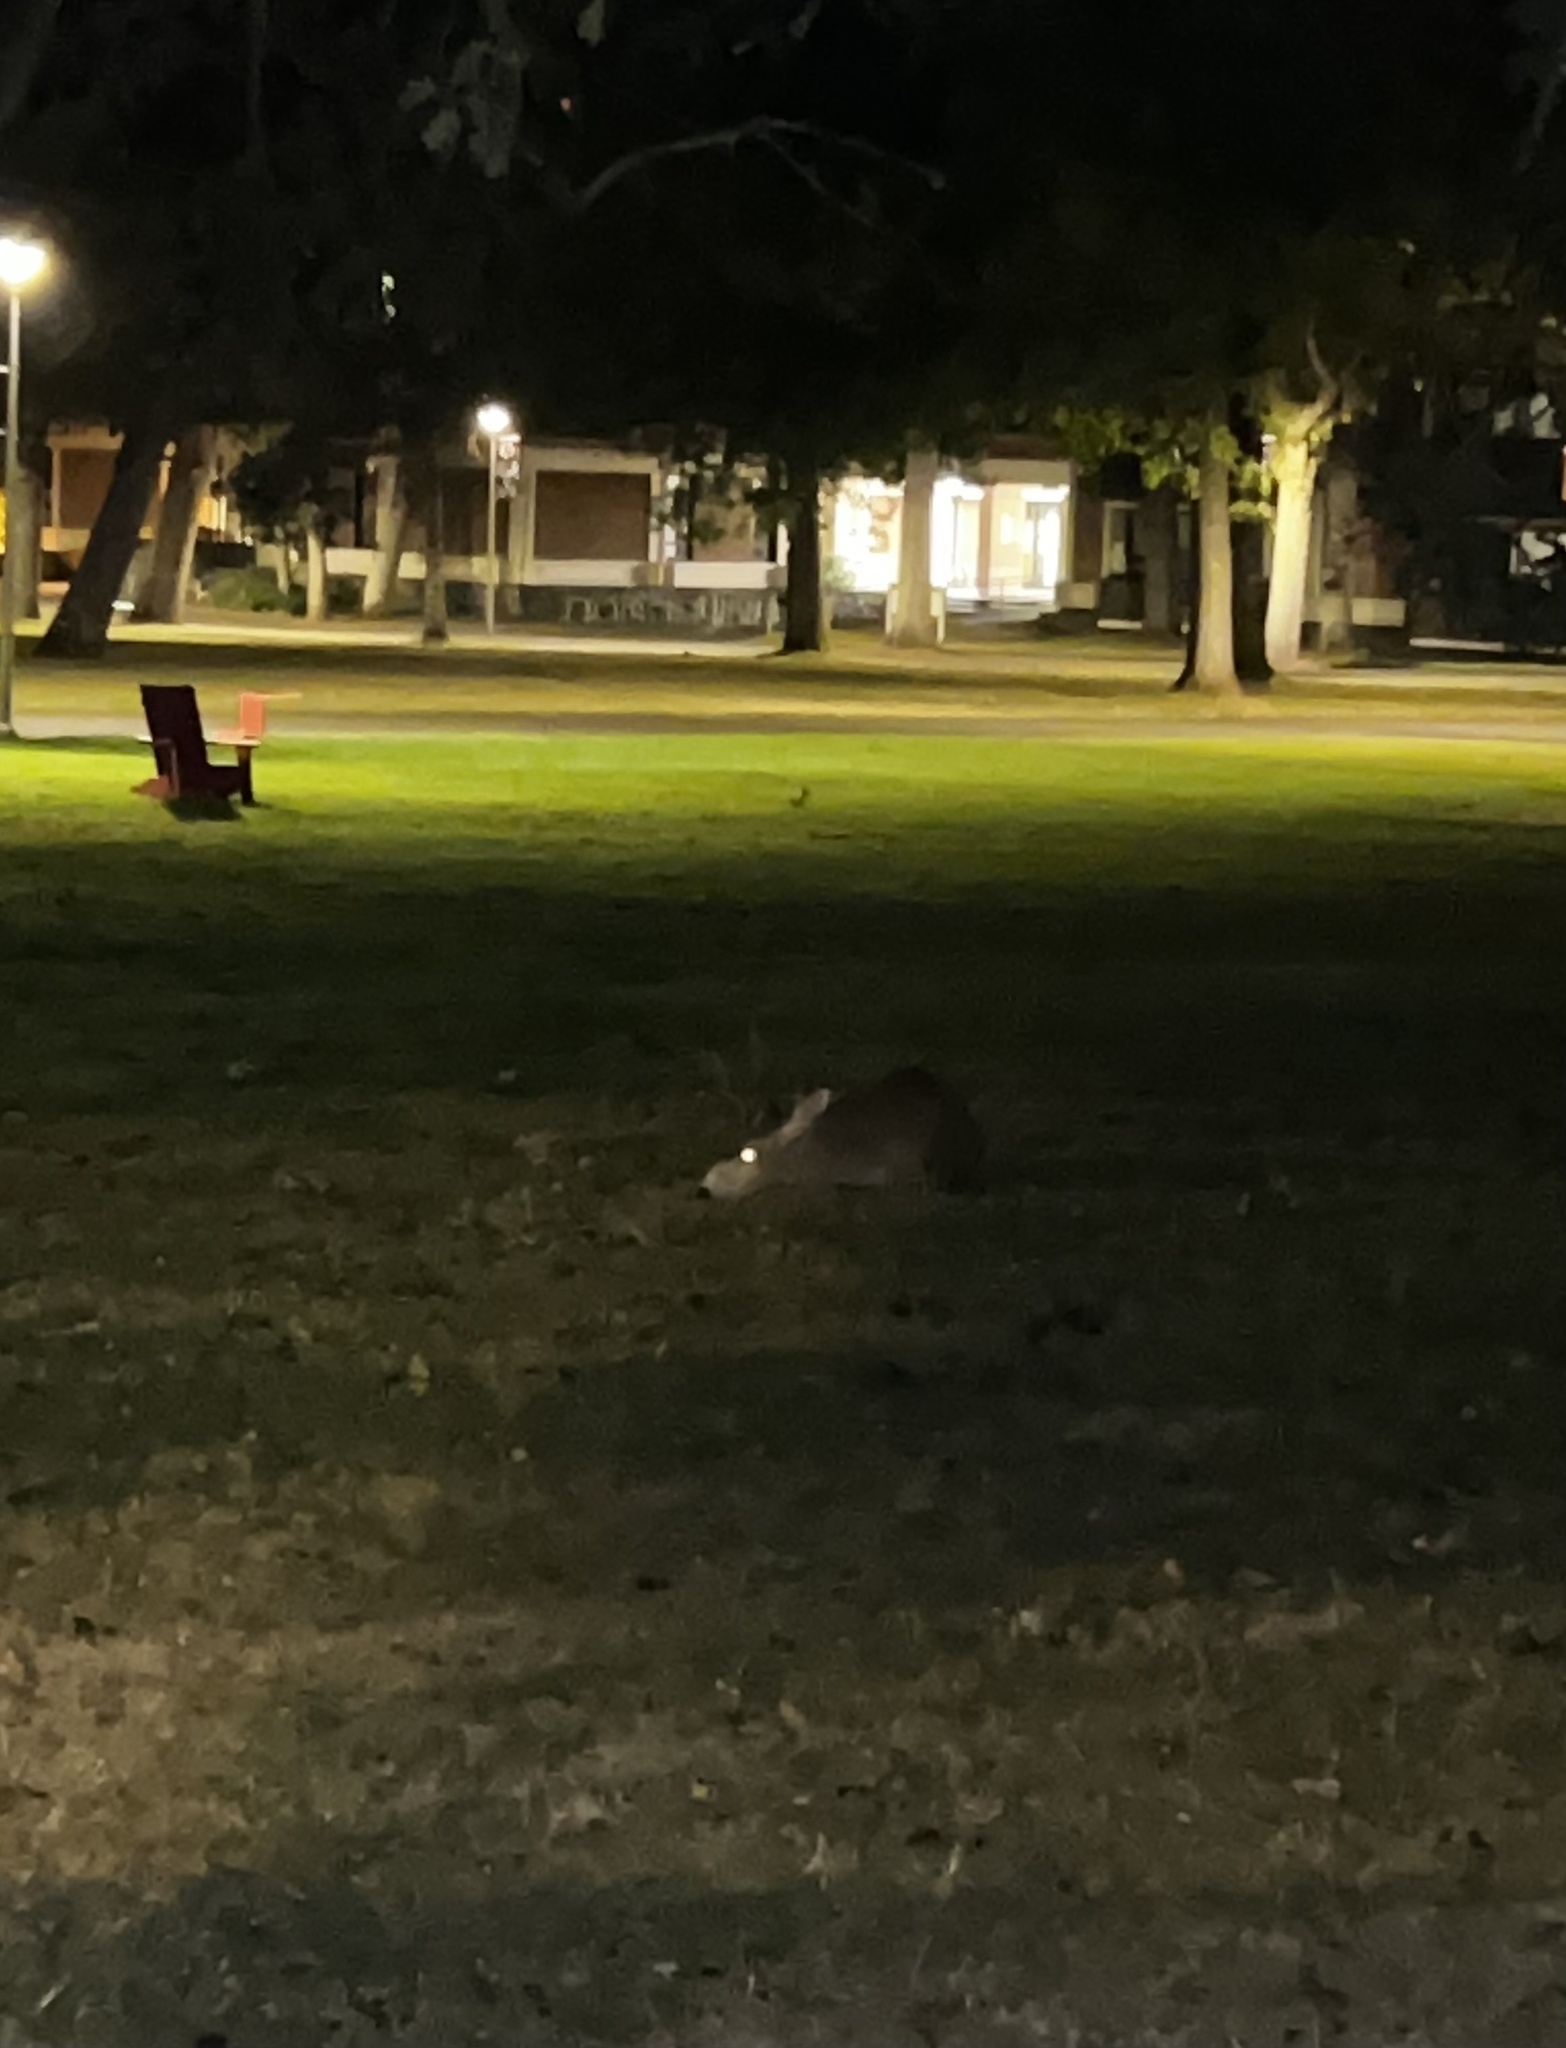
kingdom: Animalia
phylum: Chordata
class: Mammalia
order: Artiodactyla
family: Cervidae
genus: Odocoileus
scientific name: Odocoileus hemionus
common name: Mule deer
